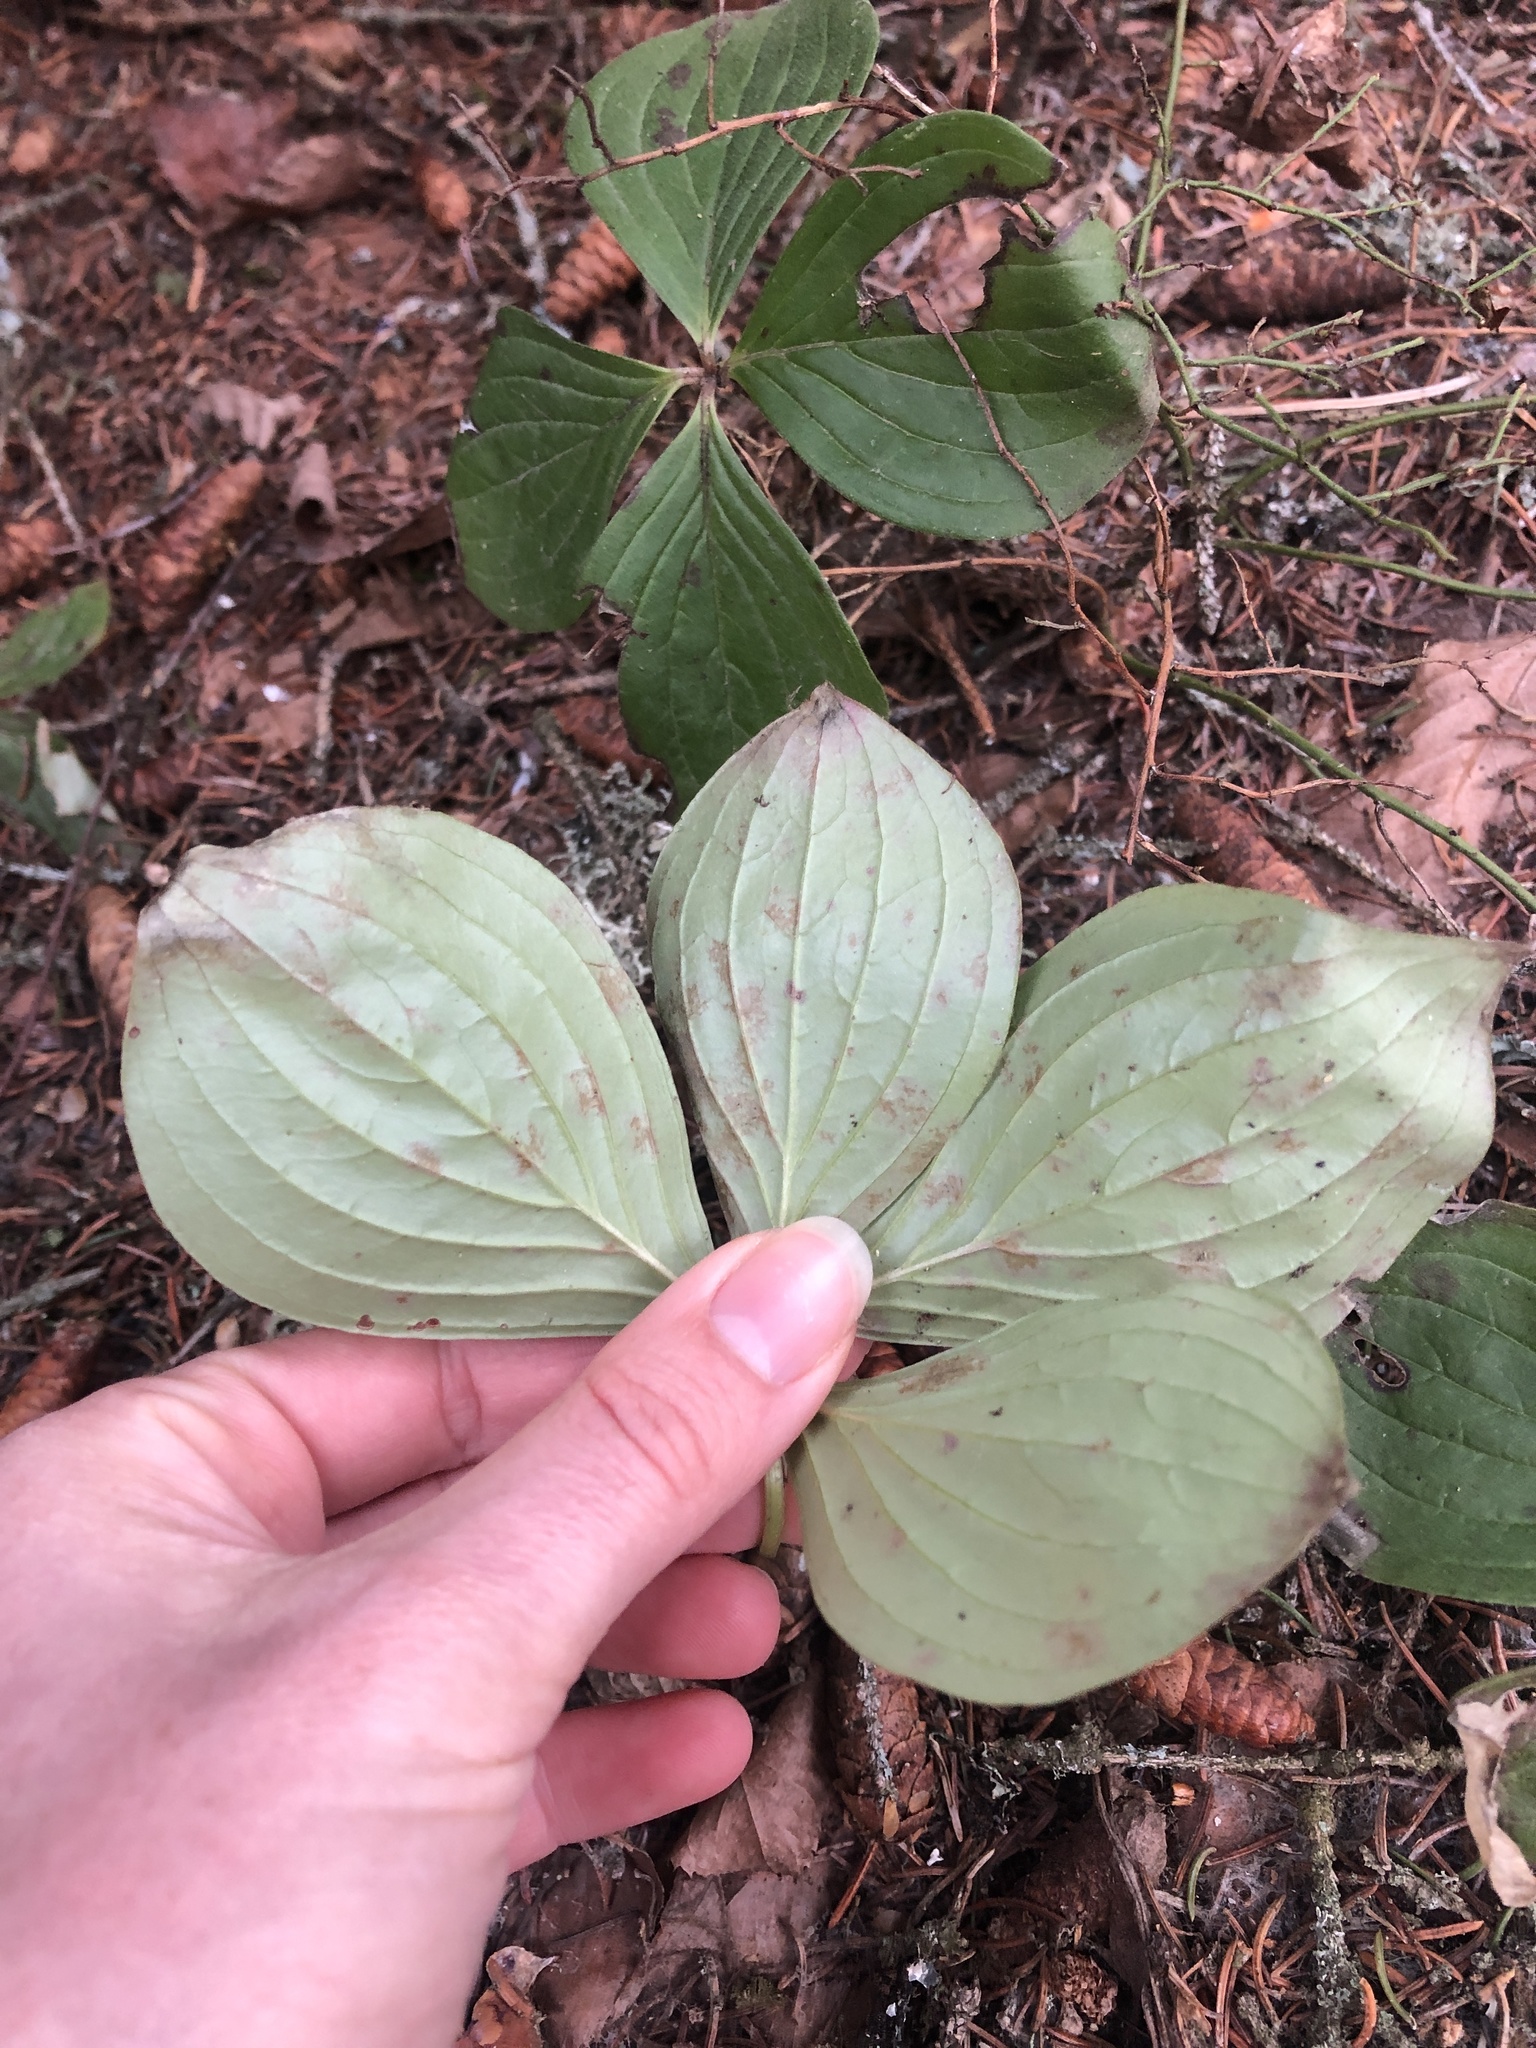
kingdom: Plantae
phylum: Tracheophyta
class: Magnoliopsida
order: Cornales
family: Cornaceae
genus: Cornus
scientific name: Cornus canadensis
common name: Creeping dogwood
